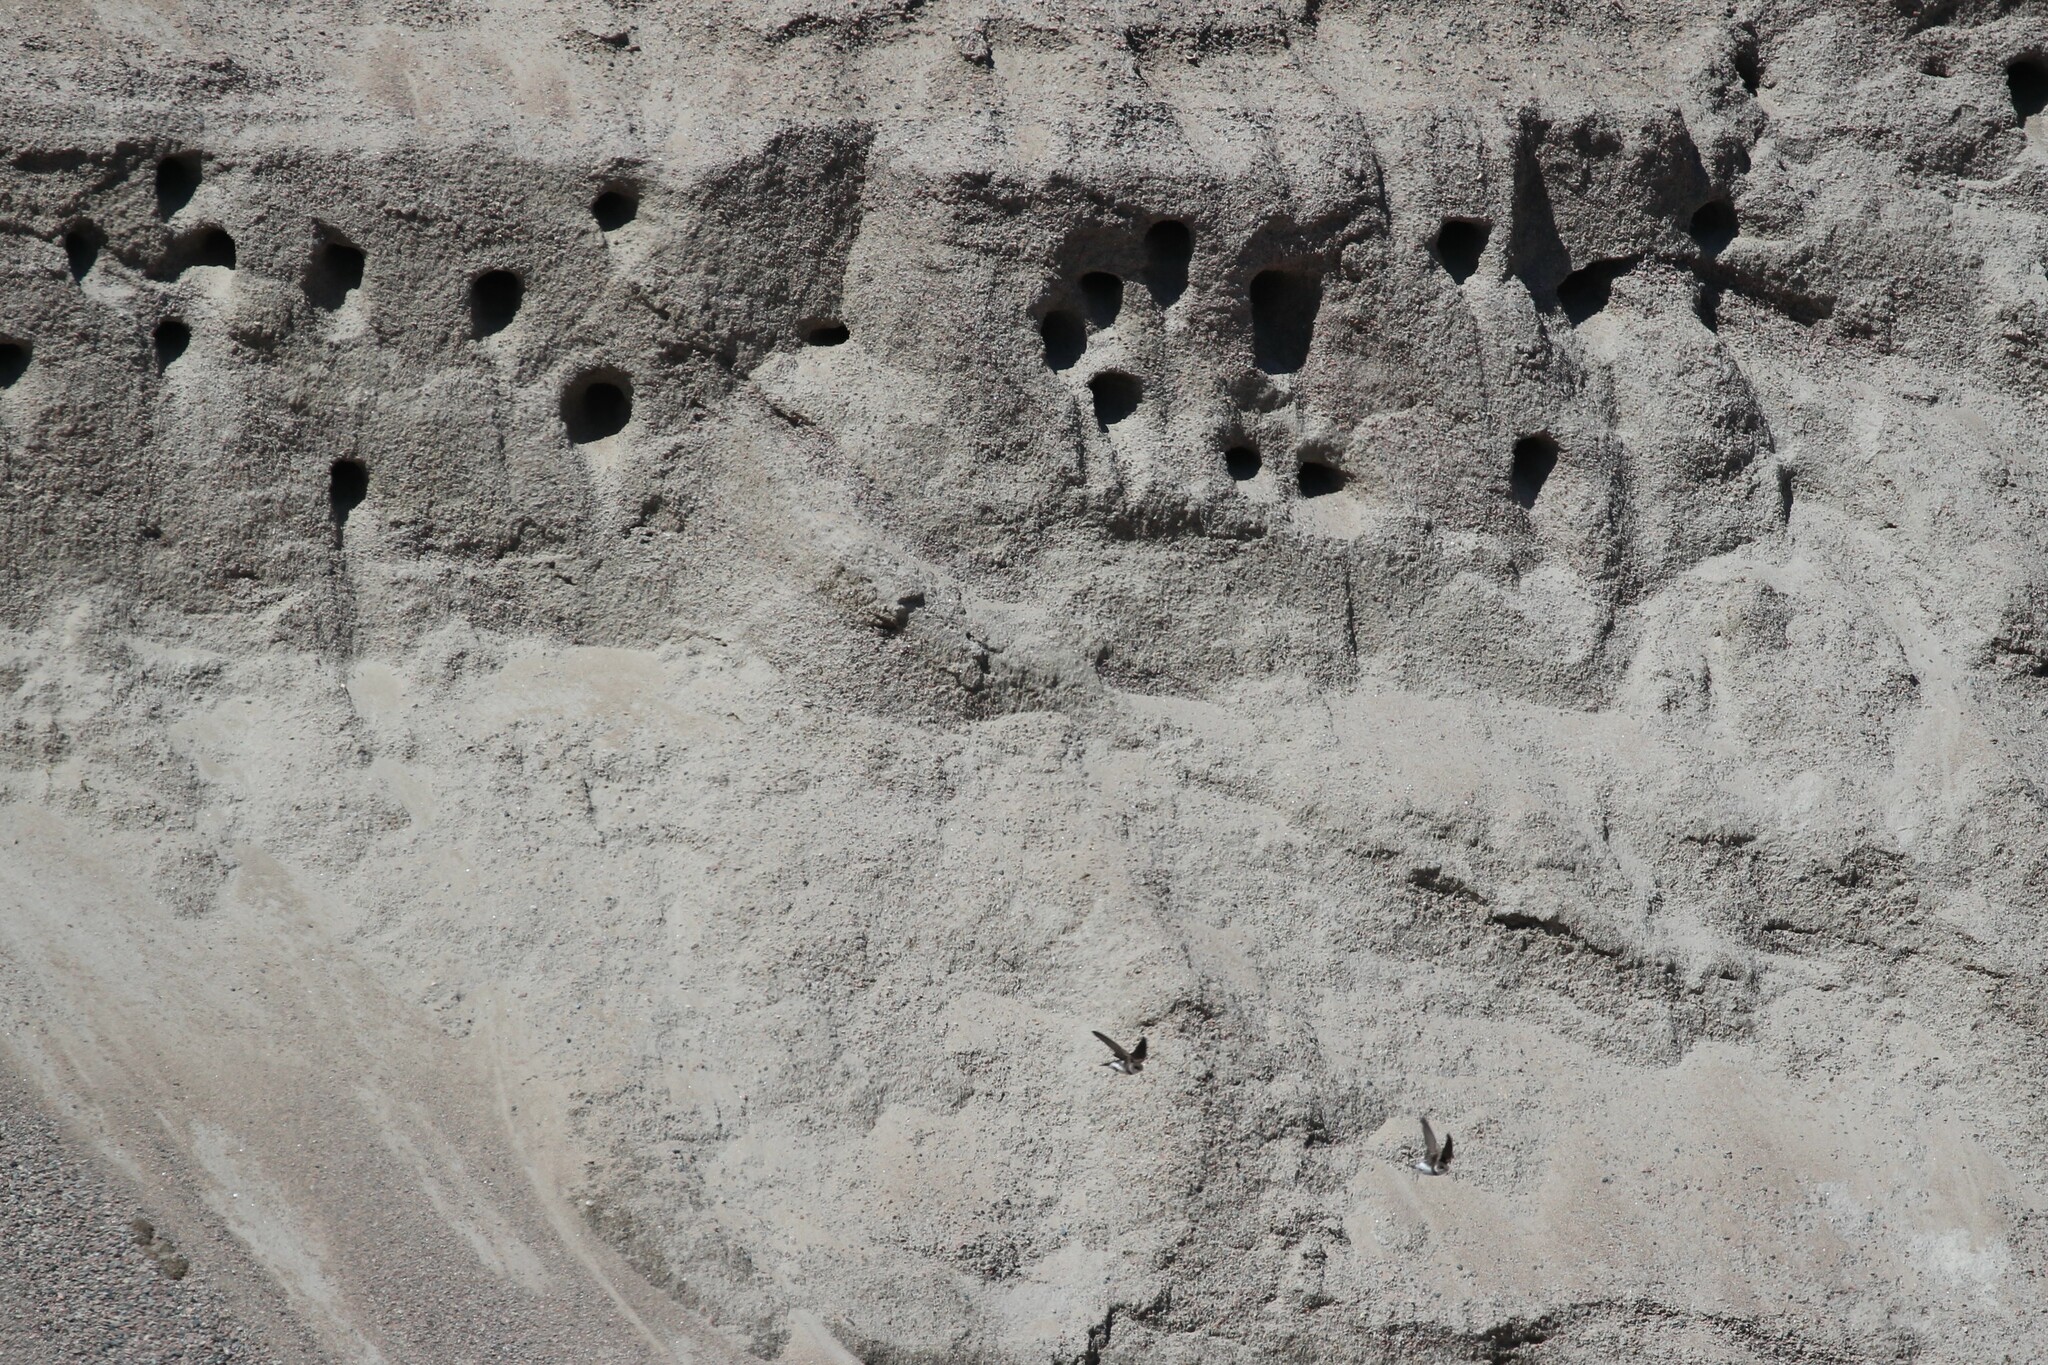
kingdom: Animalia
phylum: Chordata
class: Aves
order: Passeriformes
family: Hirundinidae
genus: Riparia
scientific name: Riparia riparia
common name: Sand martin
